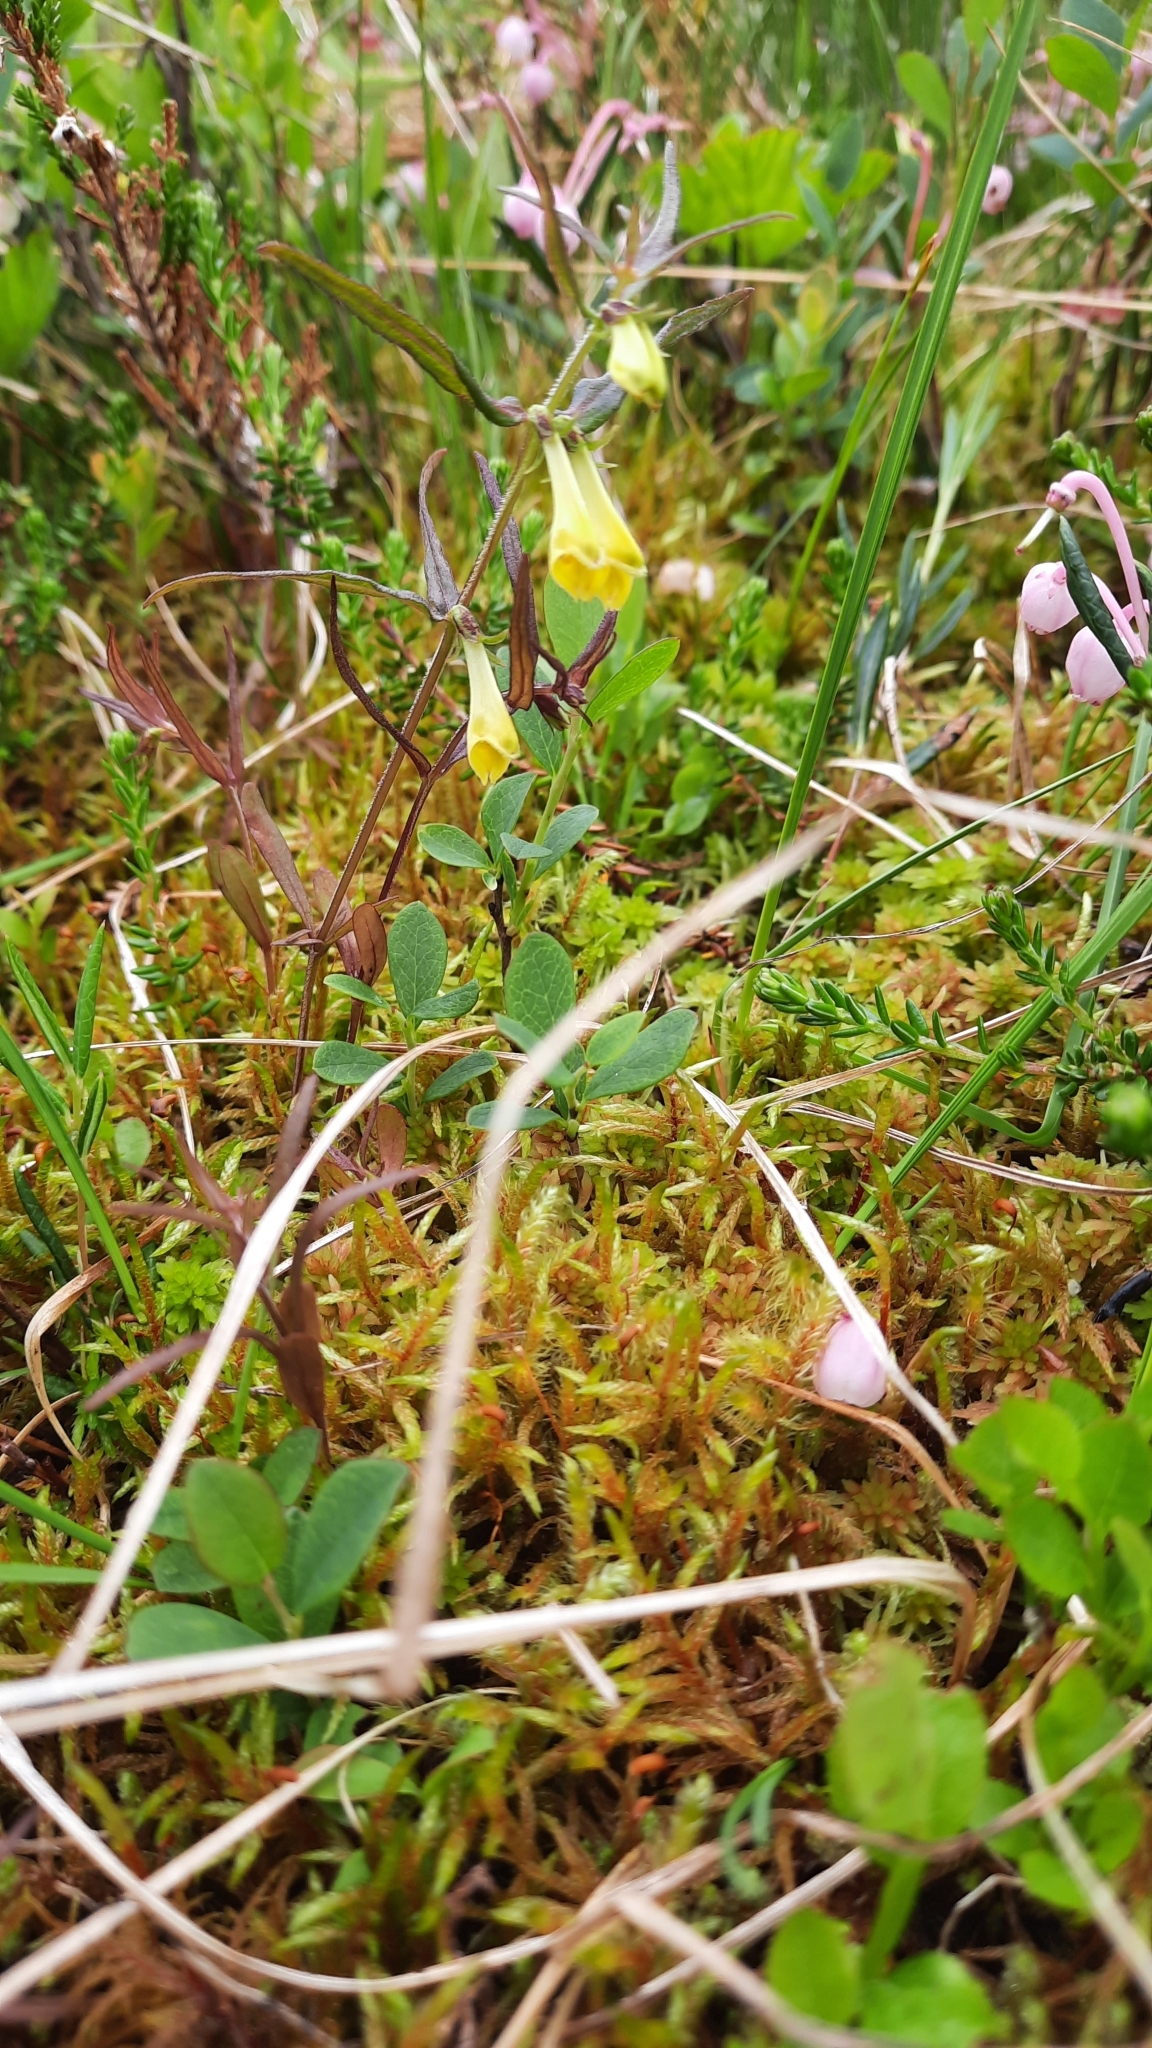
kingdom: Plantae
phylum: Tracheophyta
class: Magnoliopsida
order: Lamiales
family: Orobanchaceae
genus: Melampyrum
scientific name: Melampyrum pratense
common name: Common cow-wheat
